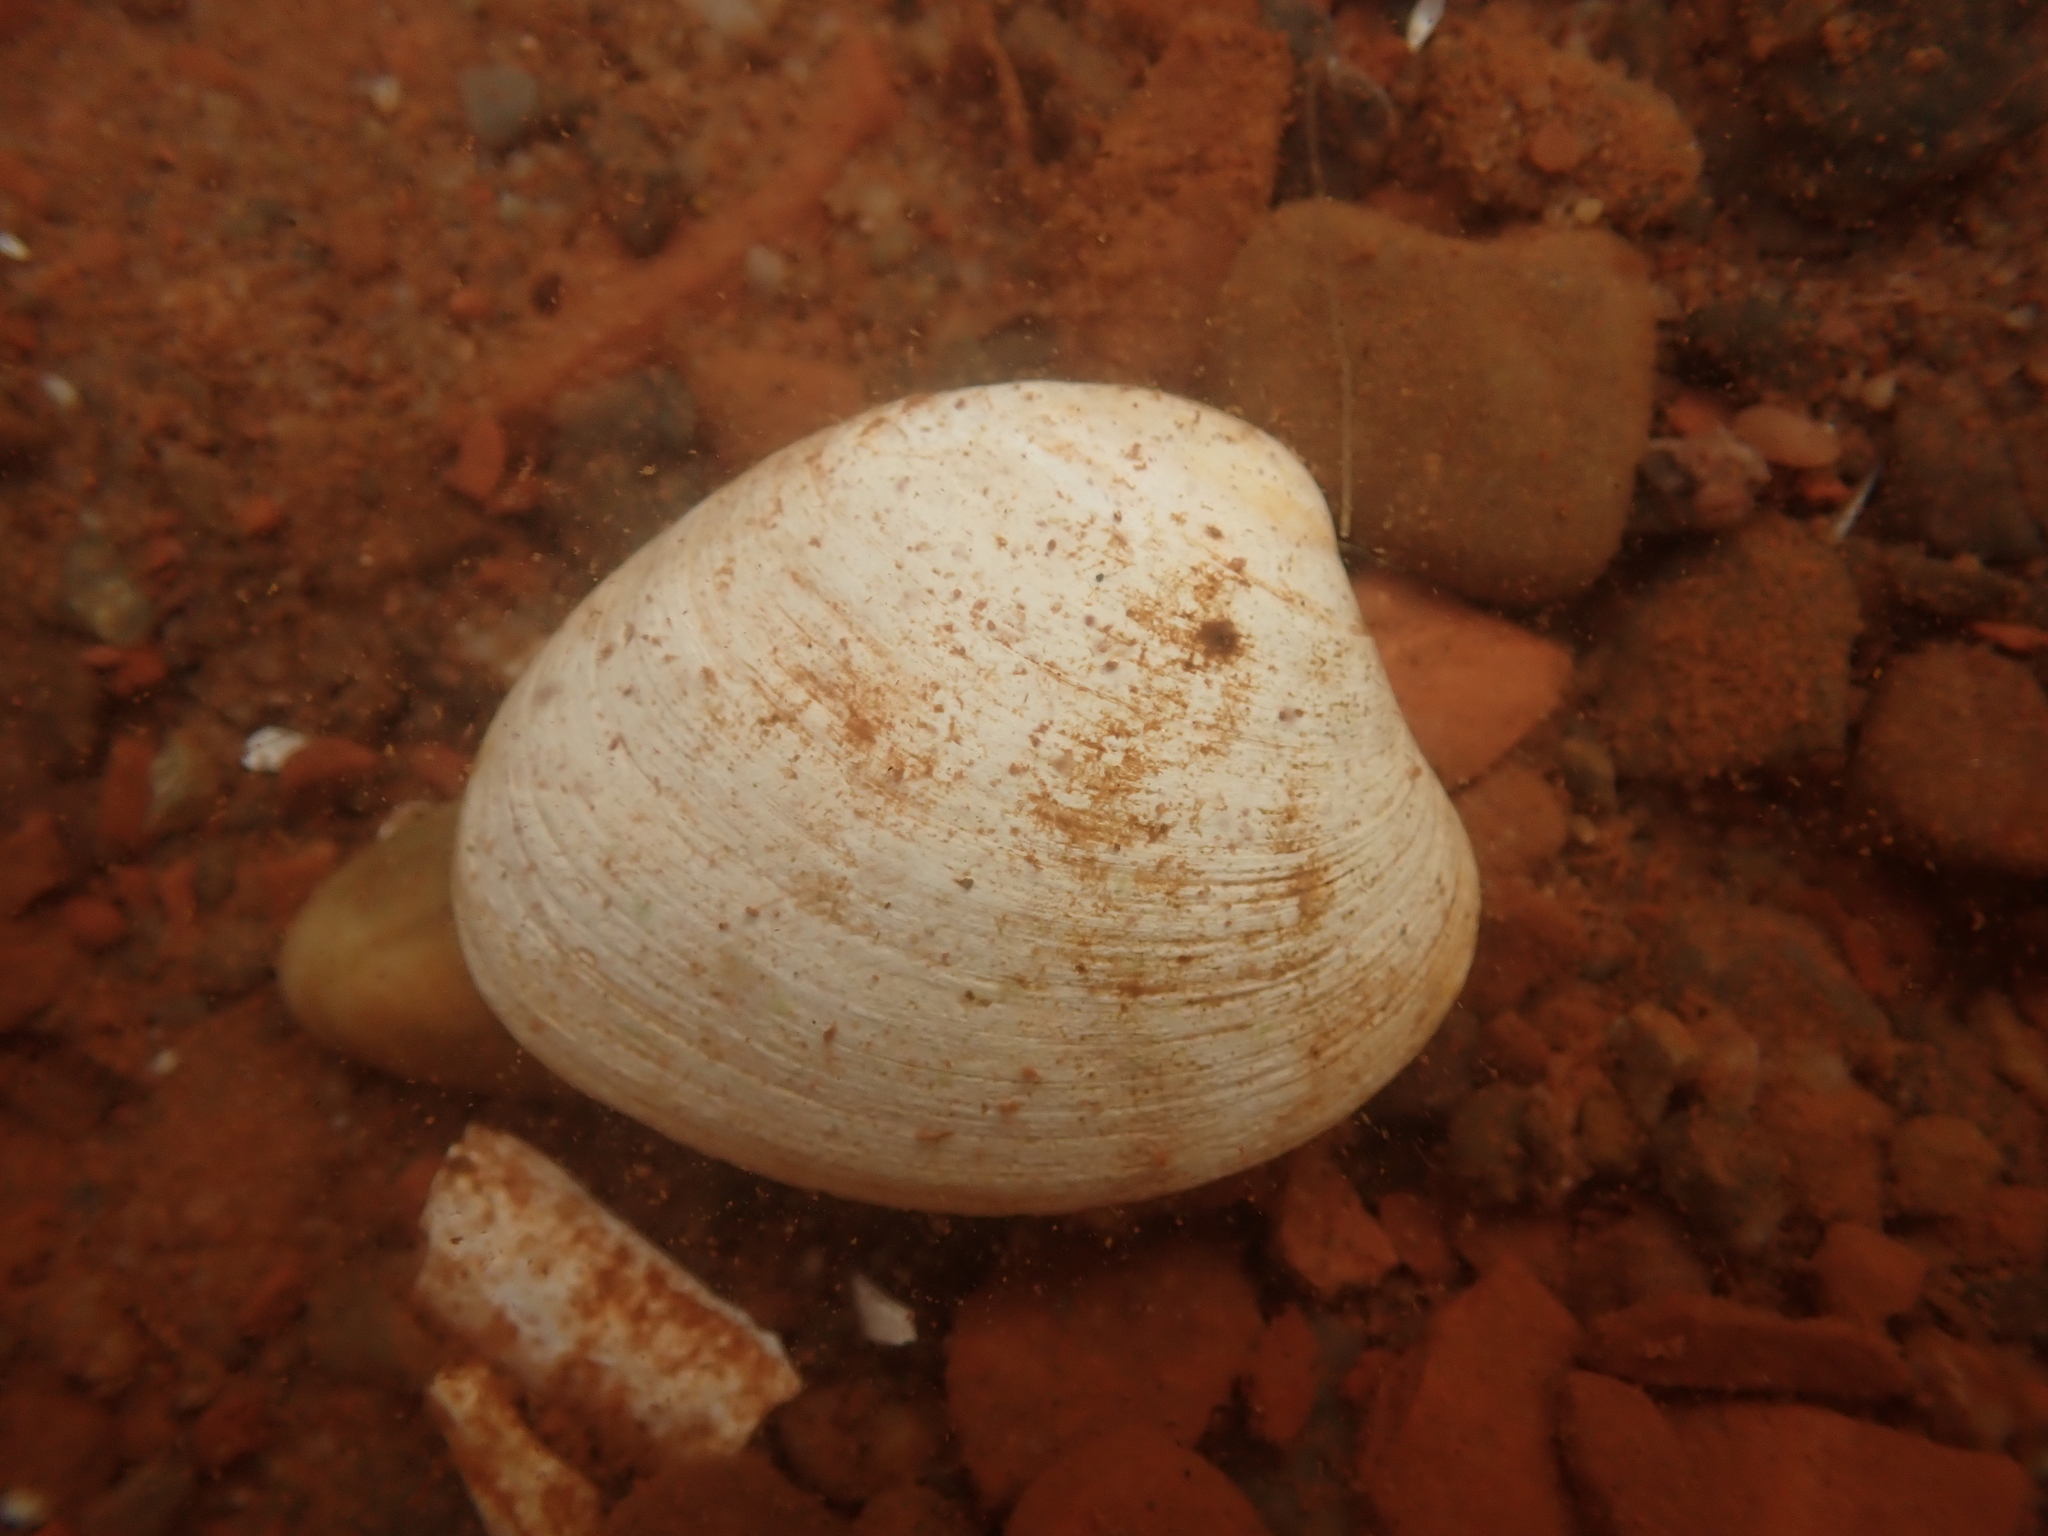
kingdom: Animalia
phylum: Mollusca
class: Bivalvia
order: Venerida
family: Veneridae
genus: Agriopoma
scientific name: Agriopoma morrhuanum
